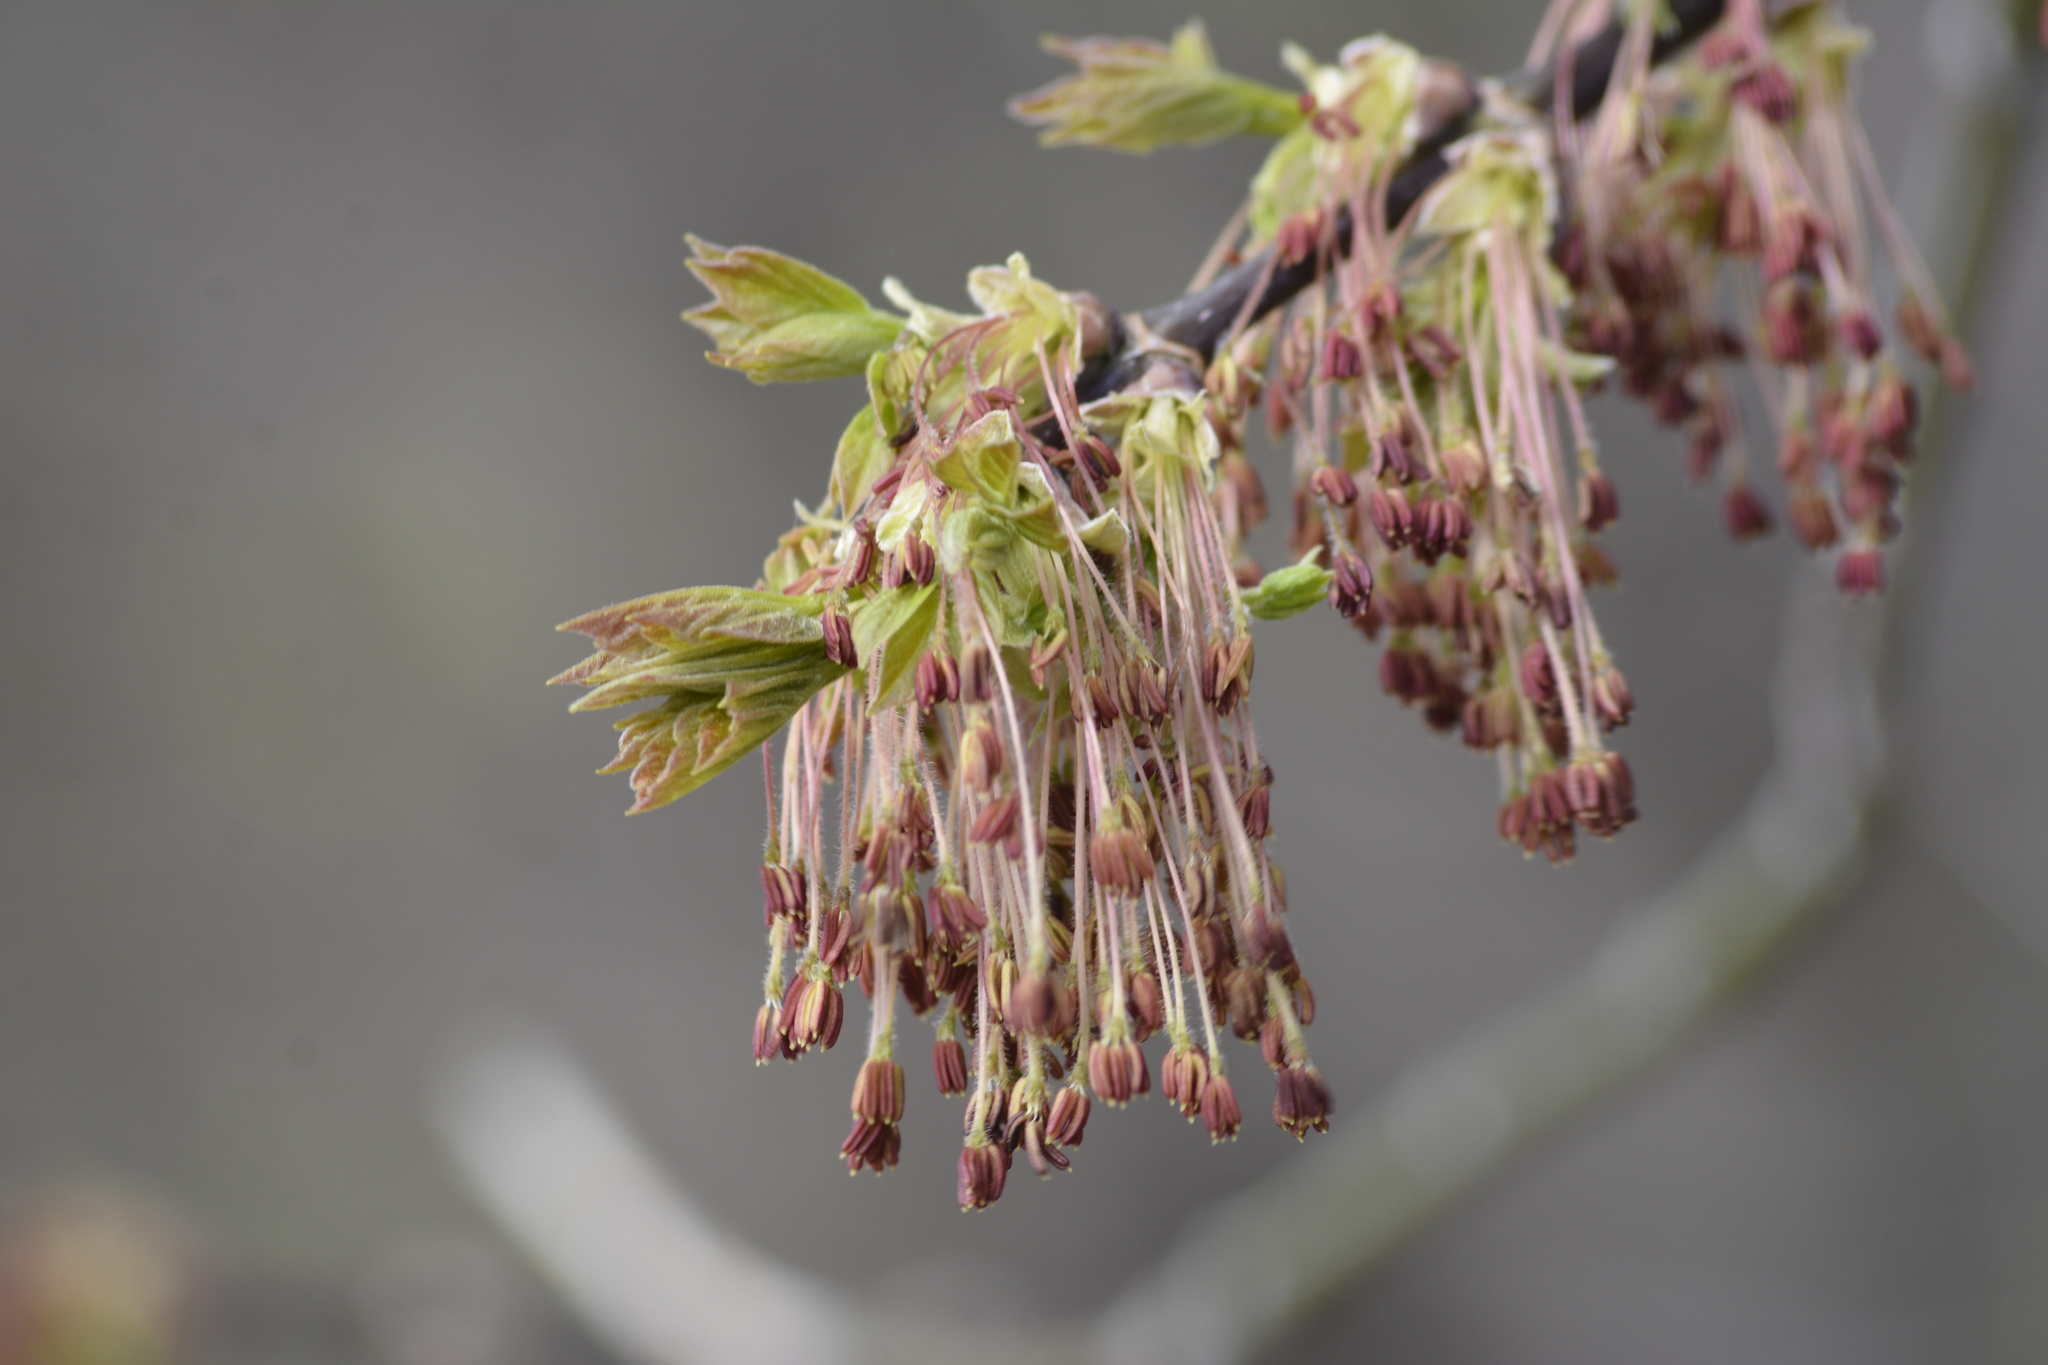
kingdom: Plantae
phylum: Tracheophyta
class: Magnoliopsida
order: Sapindales
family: Sapindaceae
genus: Acer
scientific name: Acer negundo
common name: Ashleaf maple
